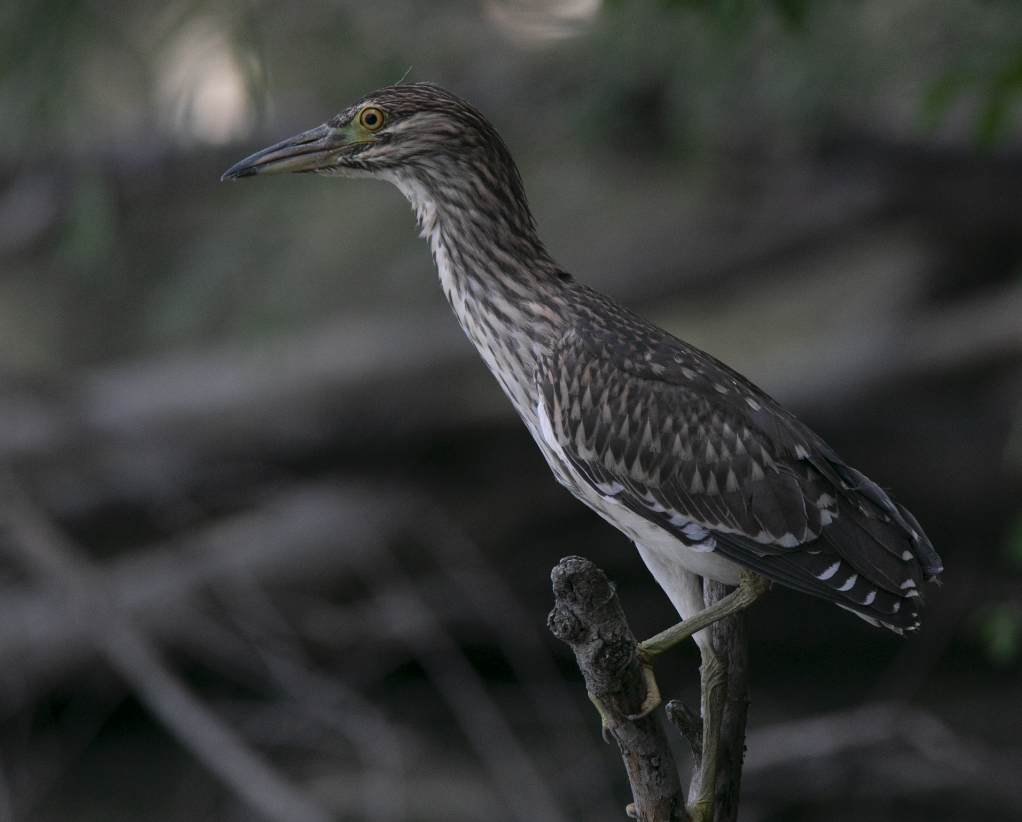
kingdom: Animalia
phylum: Chordata
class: Aves
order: Pelecaniformes
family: Ardeidae
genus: Nycticorax
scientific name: Nycticorax nycticorax
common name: Black-crowned night heron
